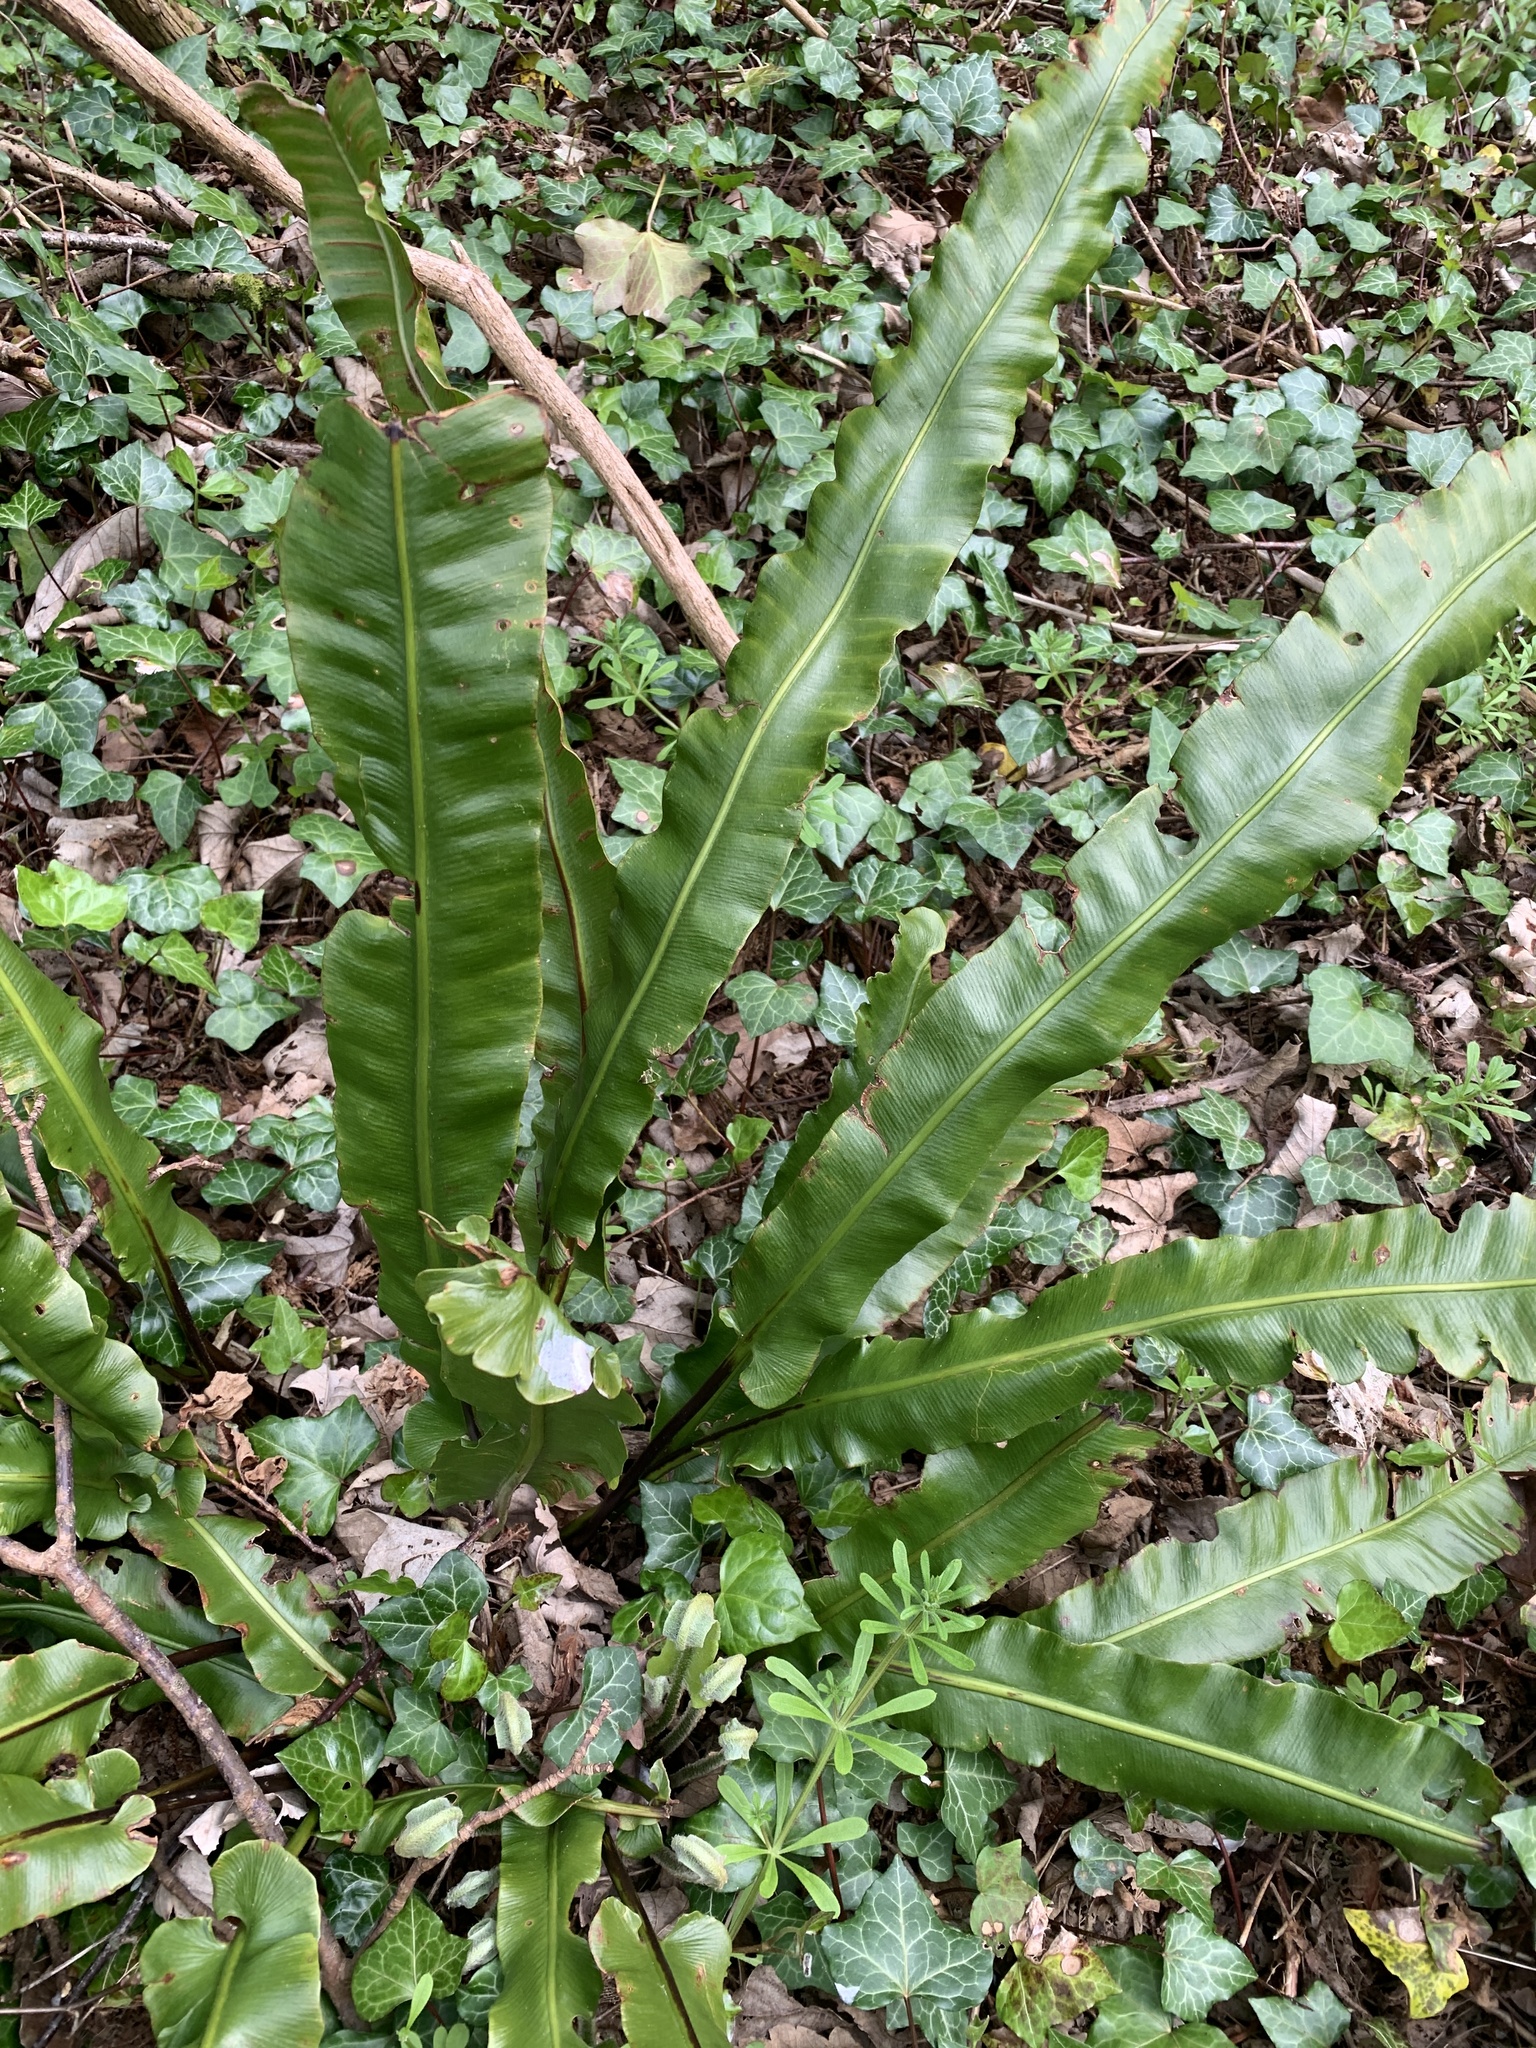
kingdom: Plantae
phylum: Tracheophyta
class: Polypodiopsida
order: Polypodiales
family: Aspleniaceae
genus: Asplenium
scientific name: Asplenium scolopendrium
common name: Hart's-tongue fern
